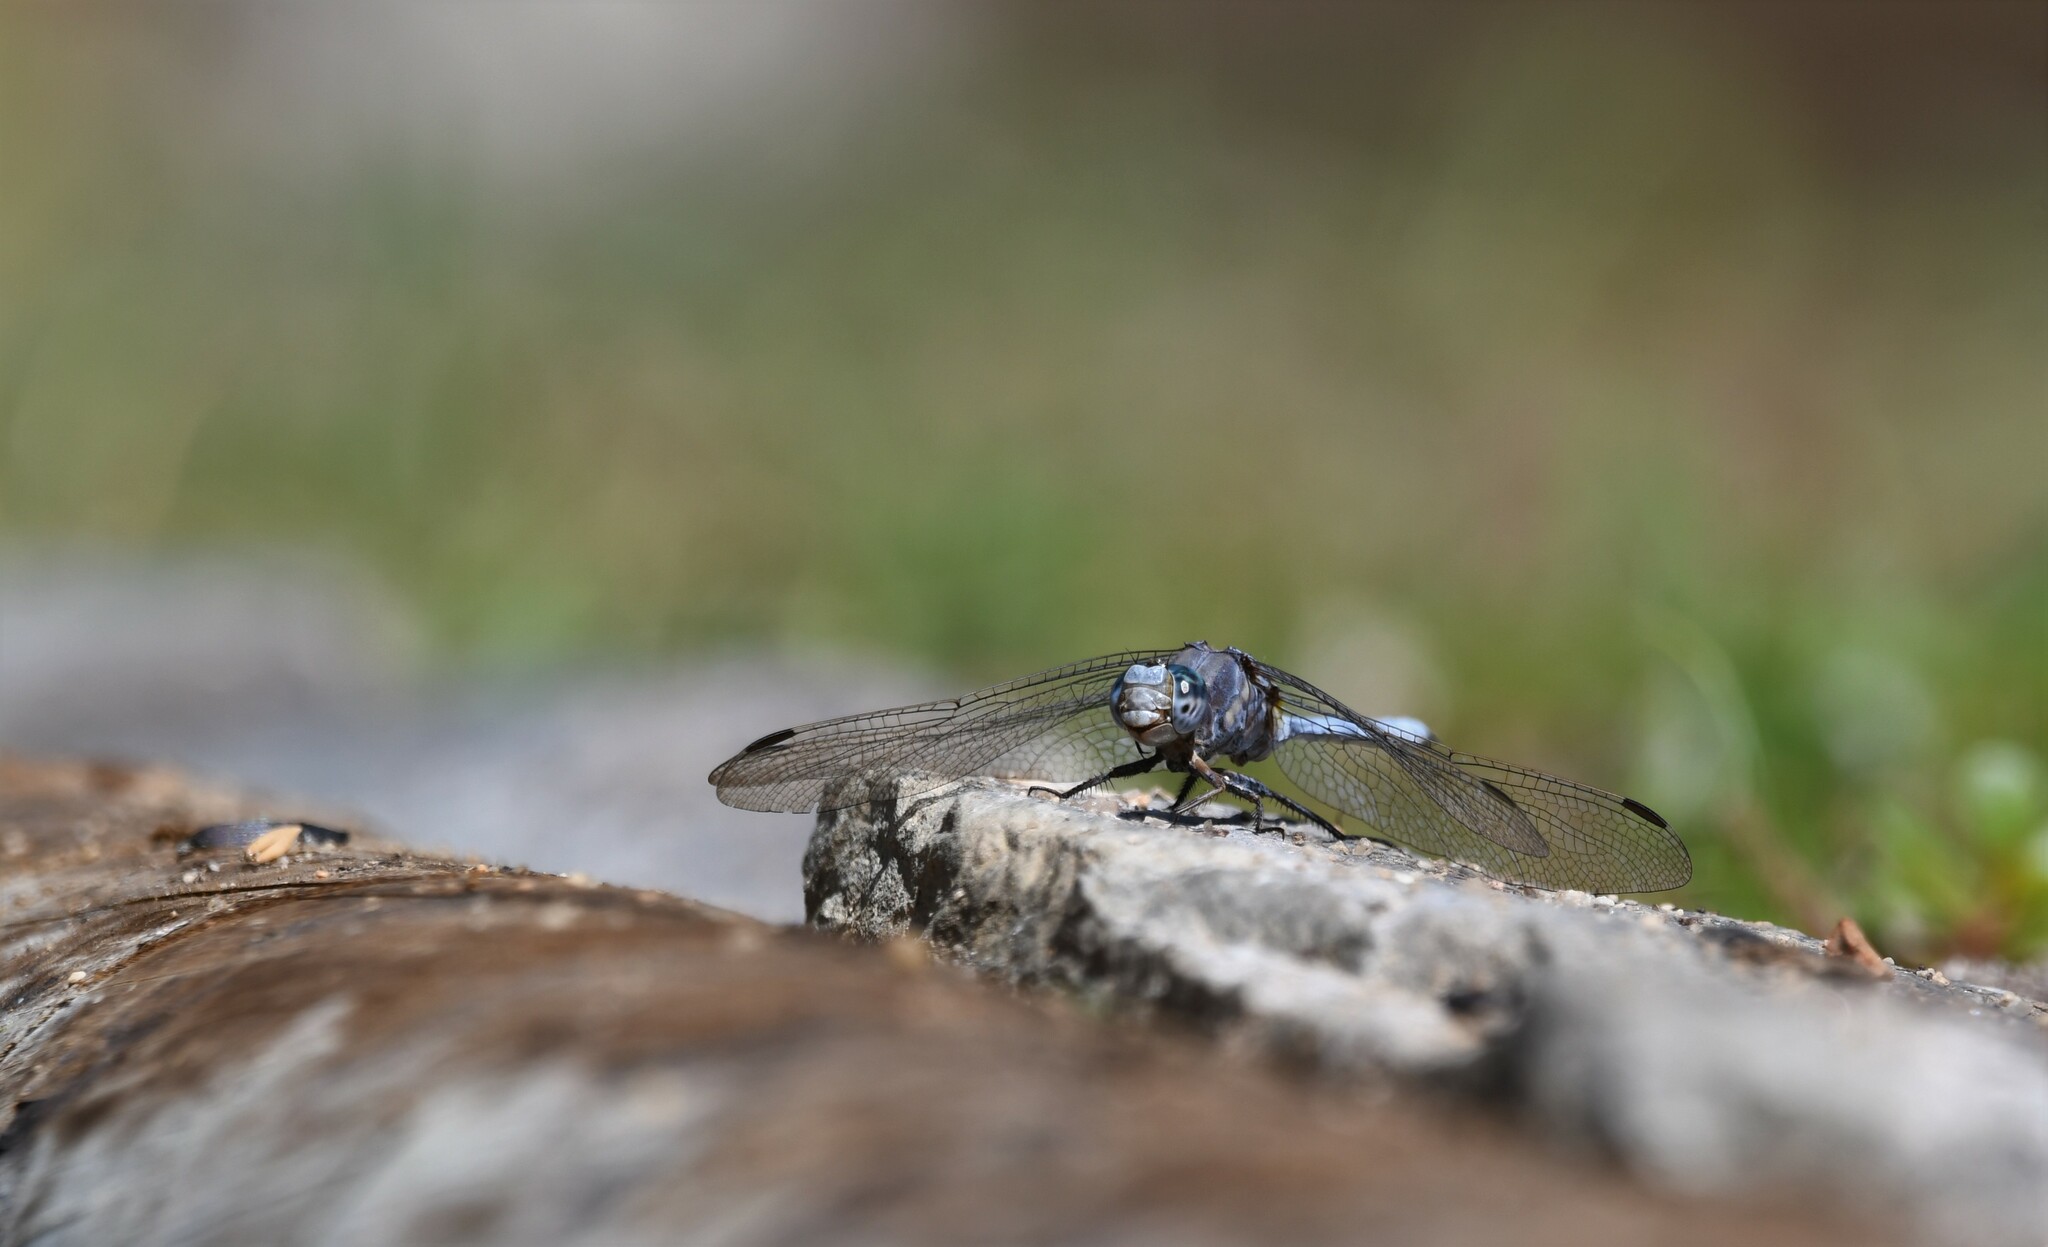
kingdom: Animalia
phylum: Arthropoda
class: Insecta
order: Odonata
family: Libellulidae
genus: Orthetrum
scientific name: Orthetrum chrysostigma
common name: Epaulet skimmer
